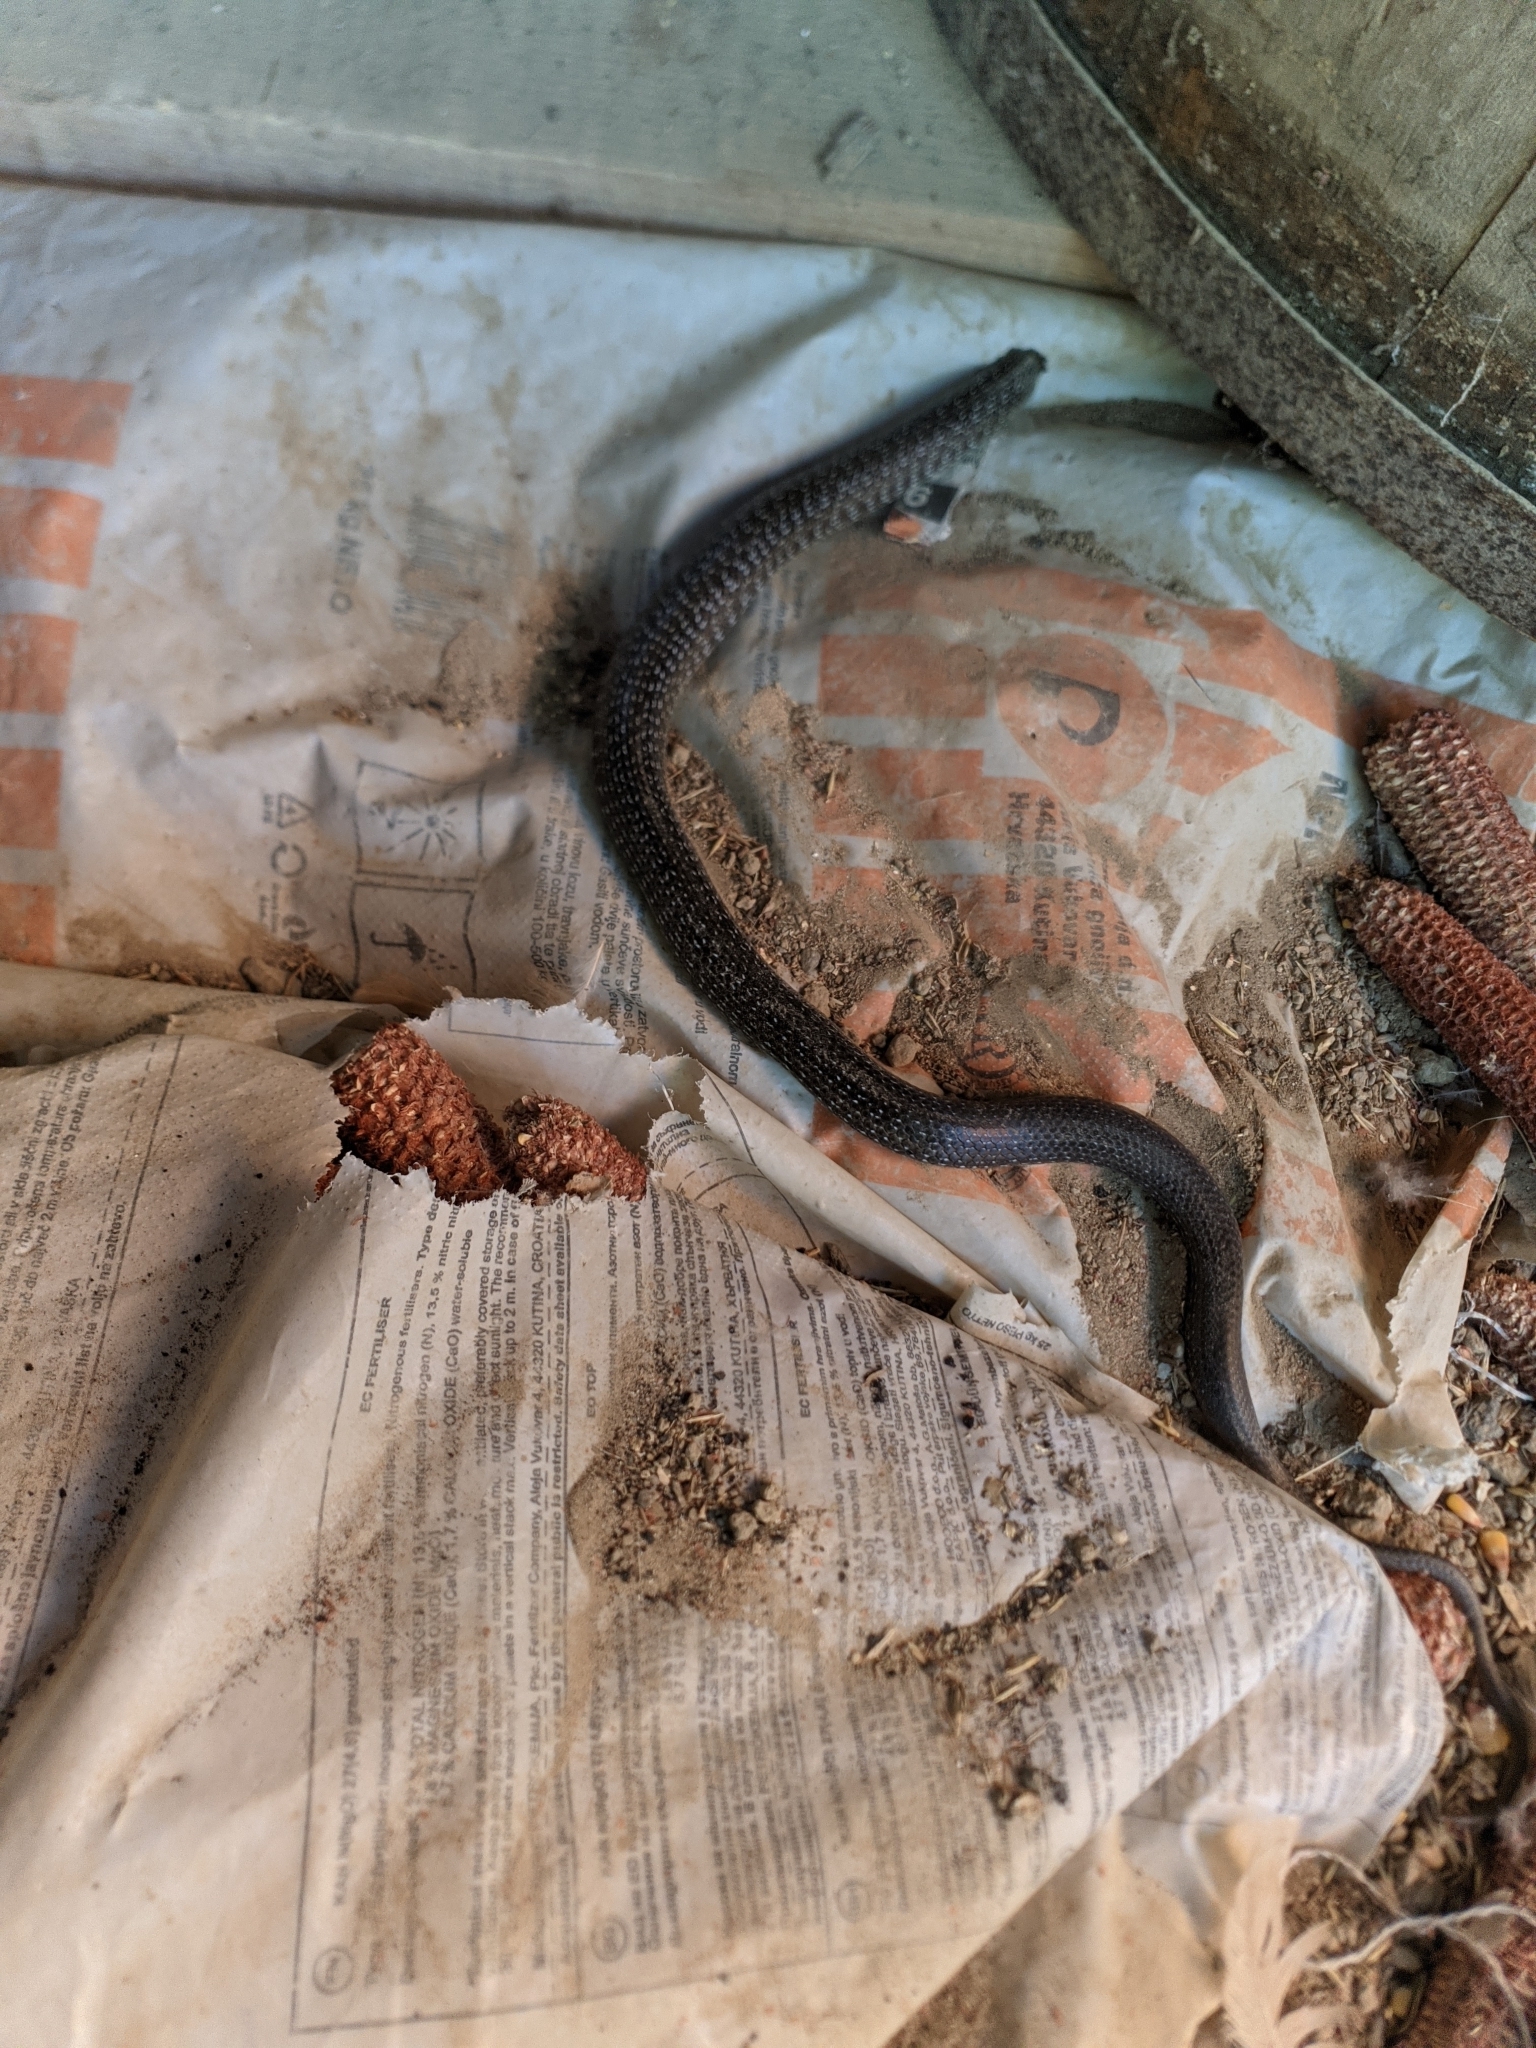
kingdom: Animalia
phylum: Chordata
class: Squamata
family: Colubridae
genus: Zamenis
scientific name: Zamenis longissimus
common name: Aesculapean snake
